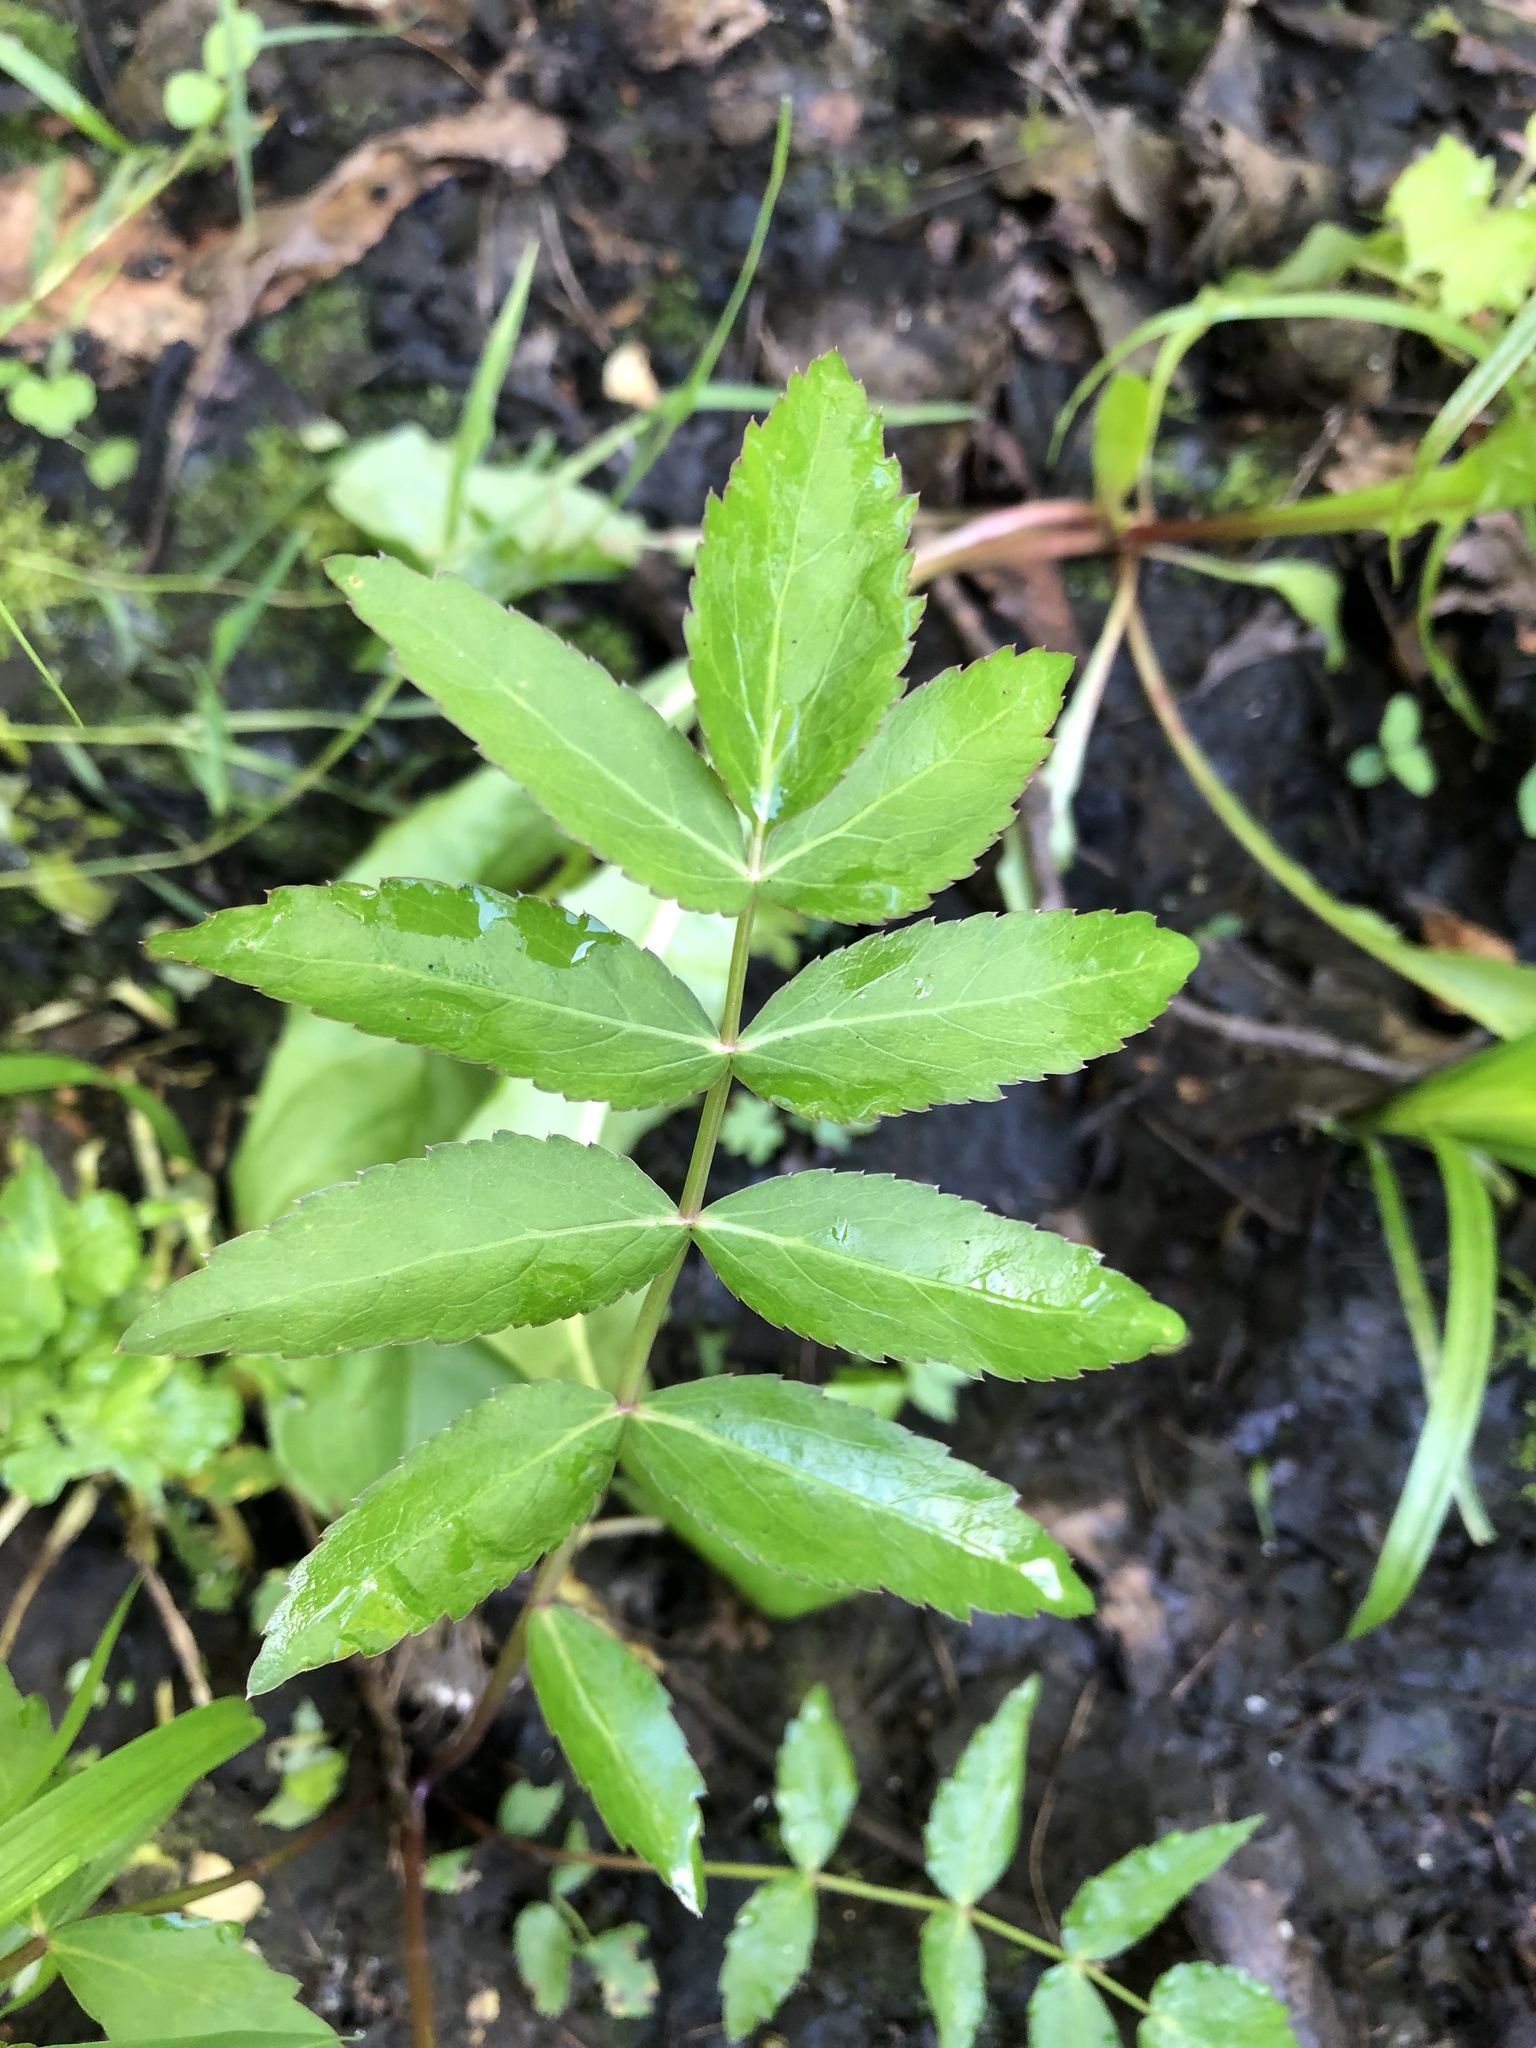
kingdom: Plantae
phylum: Tracheophyta
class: Magnoliopsida
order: Apiales
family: Apiaceae
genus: Sium
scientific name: Sium suave
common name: Hemlock water-parsnip
